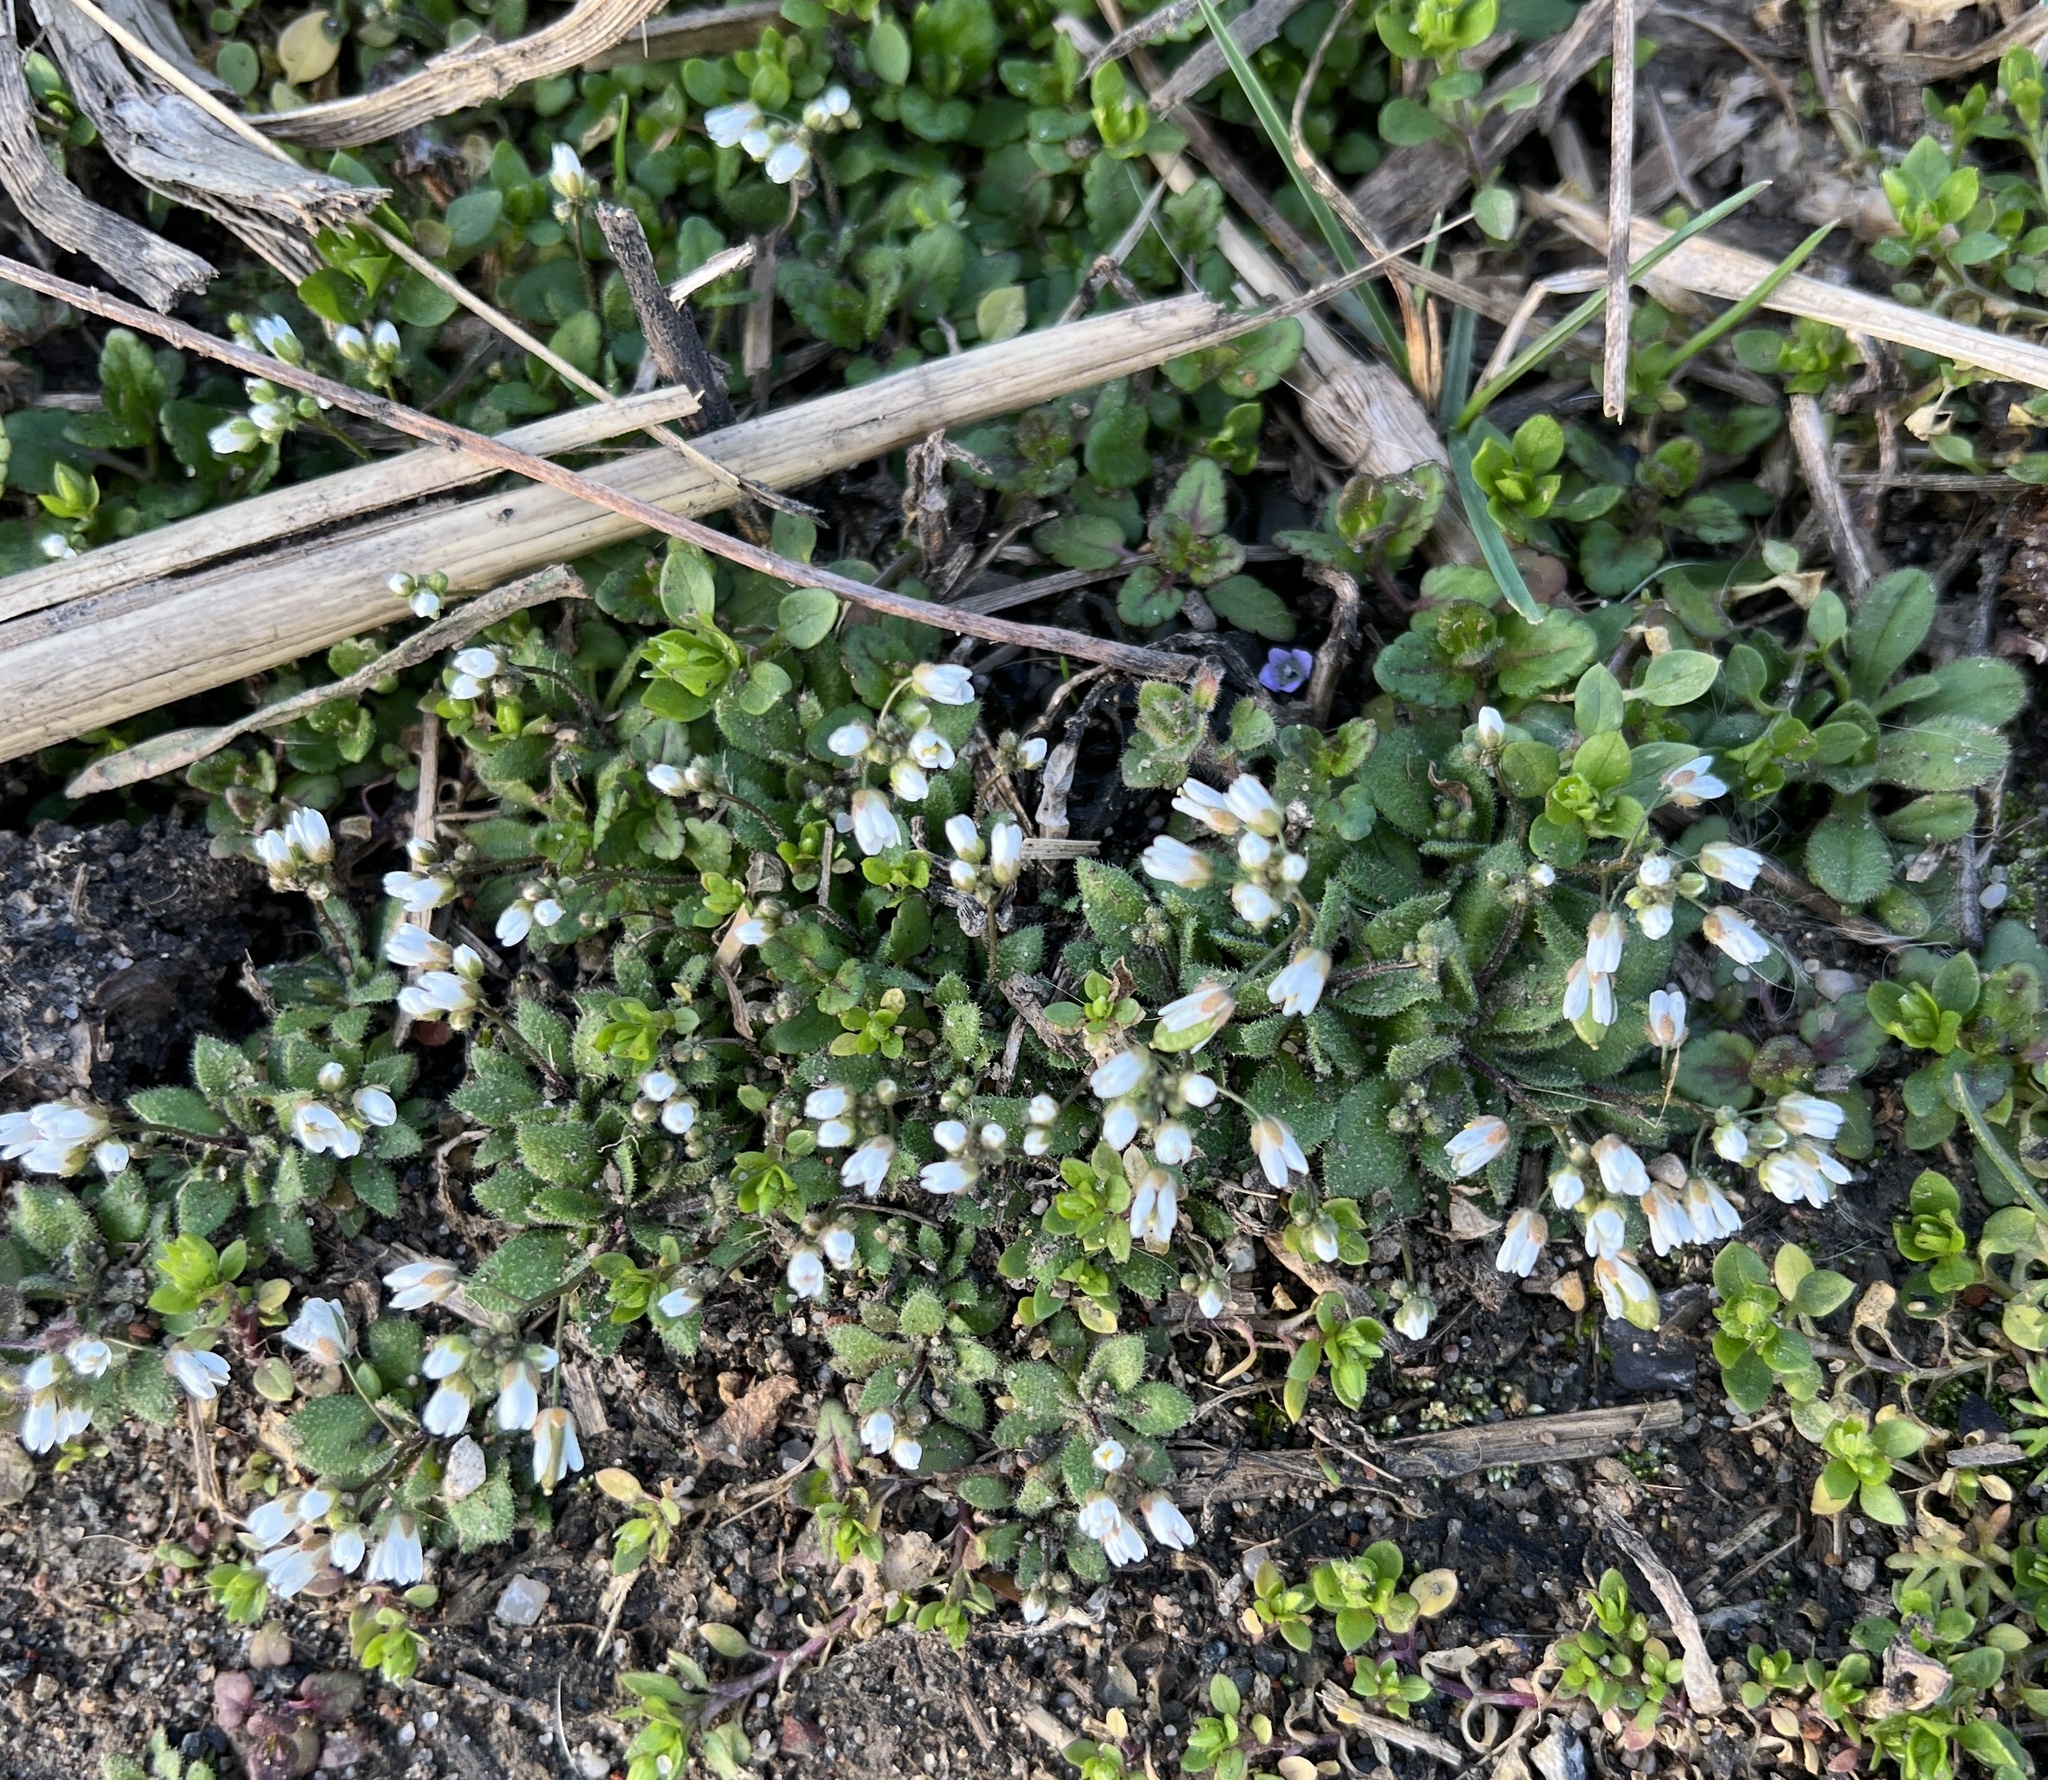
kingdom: Plantae
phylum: Tracheophyta
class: Magnoliopsida
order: Brassicales
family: Brassicaceae
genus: Draba
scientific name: Draba verna
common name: Spring draba
